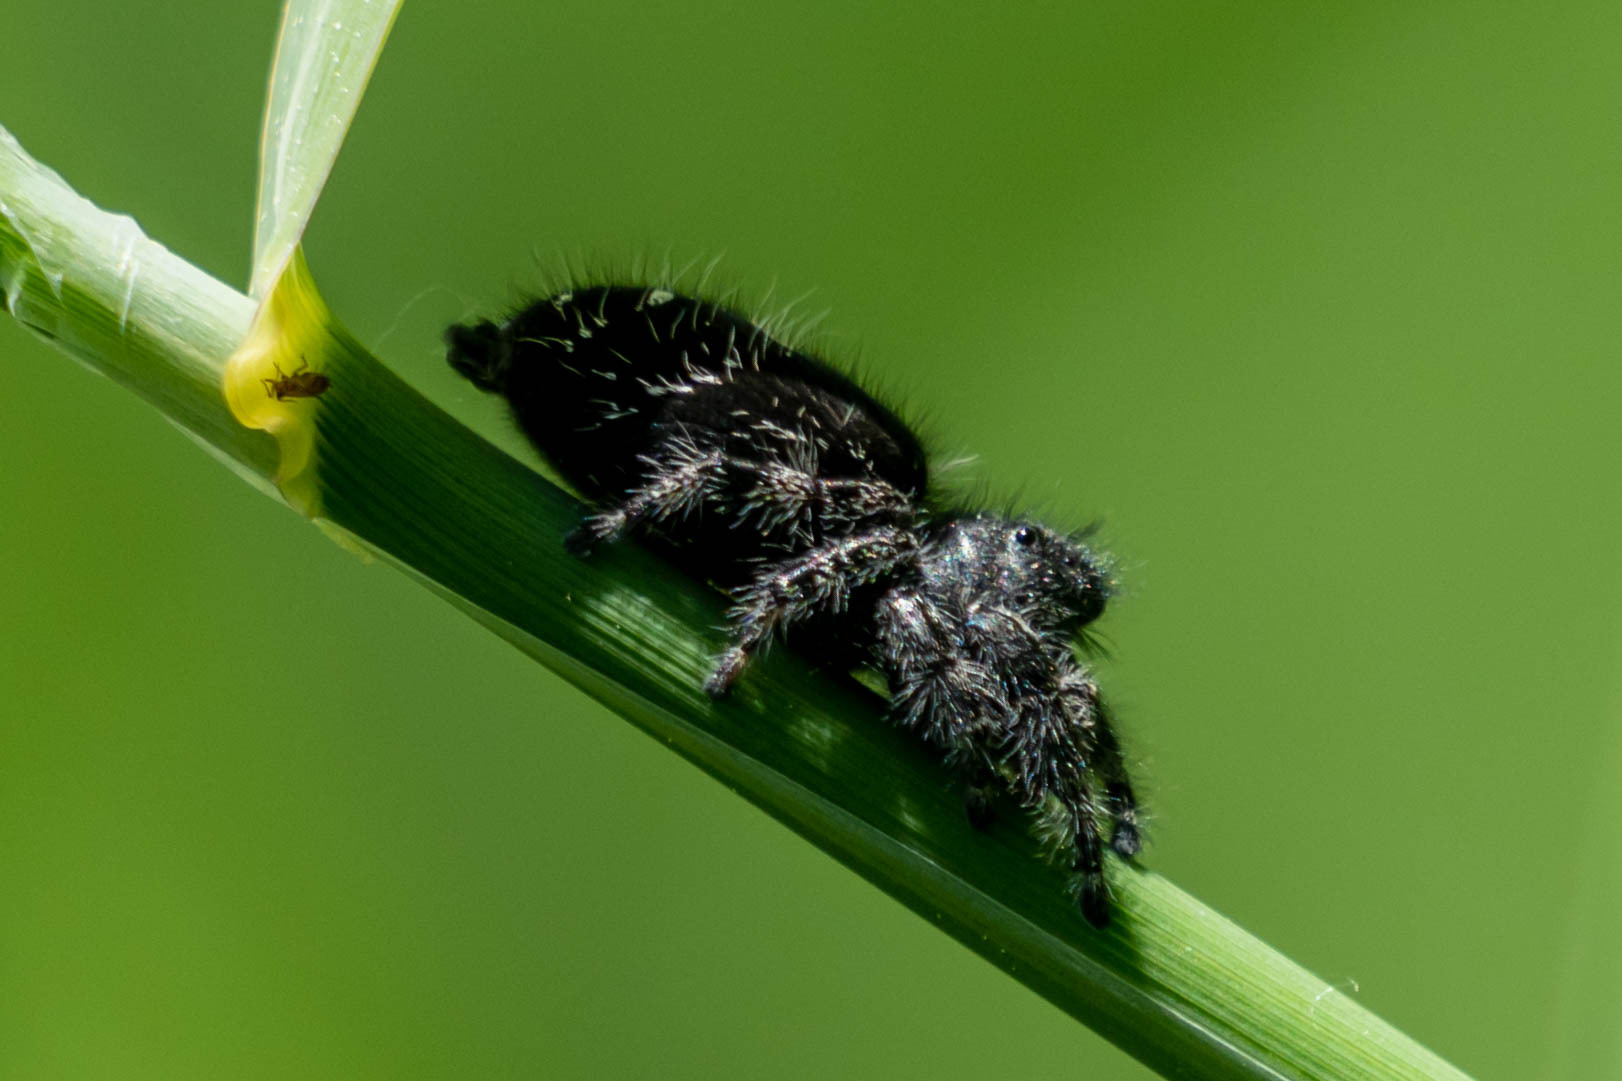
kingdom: Animalia
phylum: Arthropoda
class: Arachnida
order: Araneae
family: Salticidae
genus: Phidippus
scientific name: Phidippus audax
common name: Bold jumper
